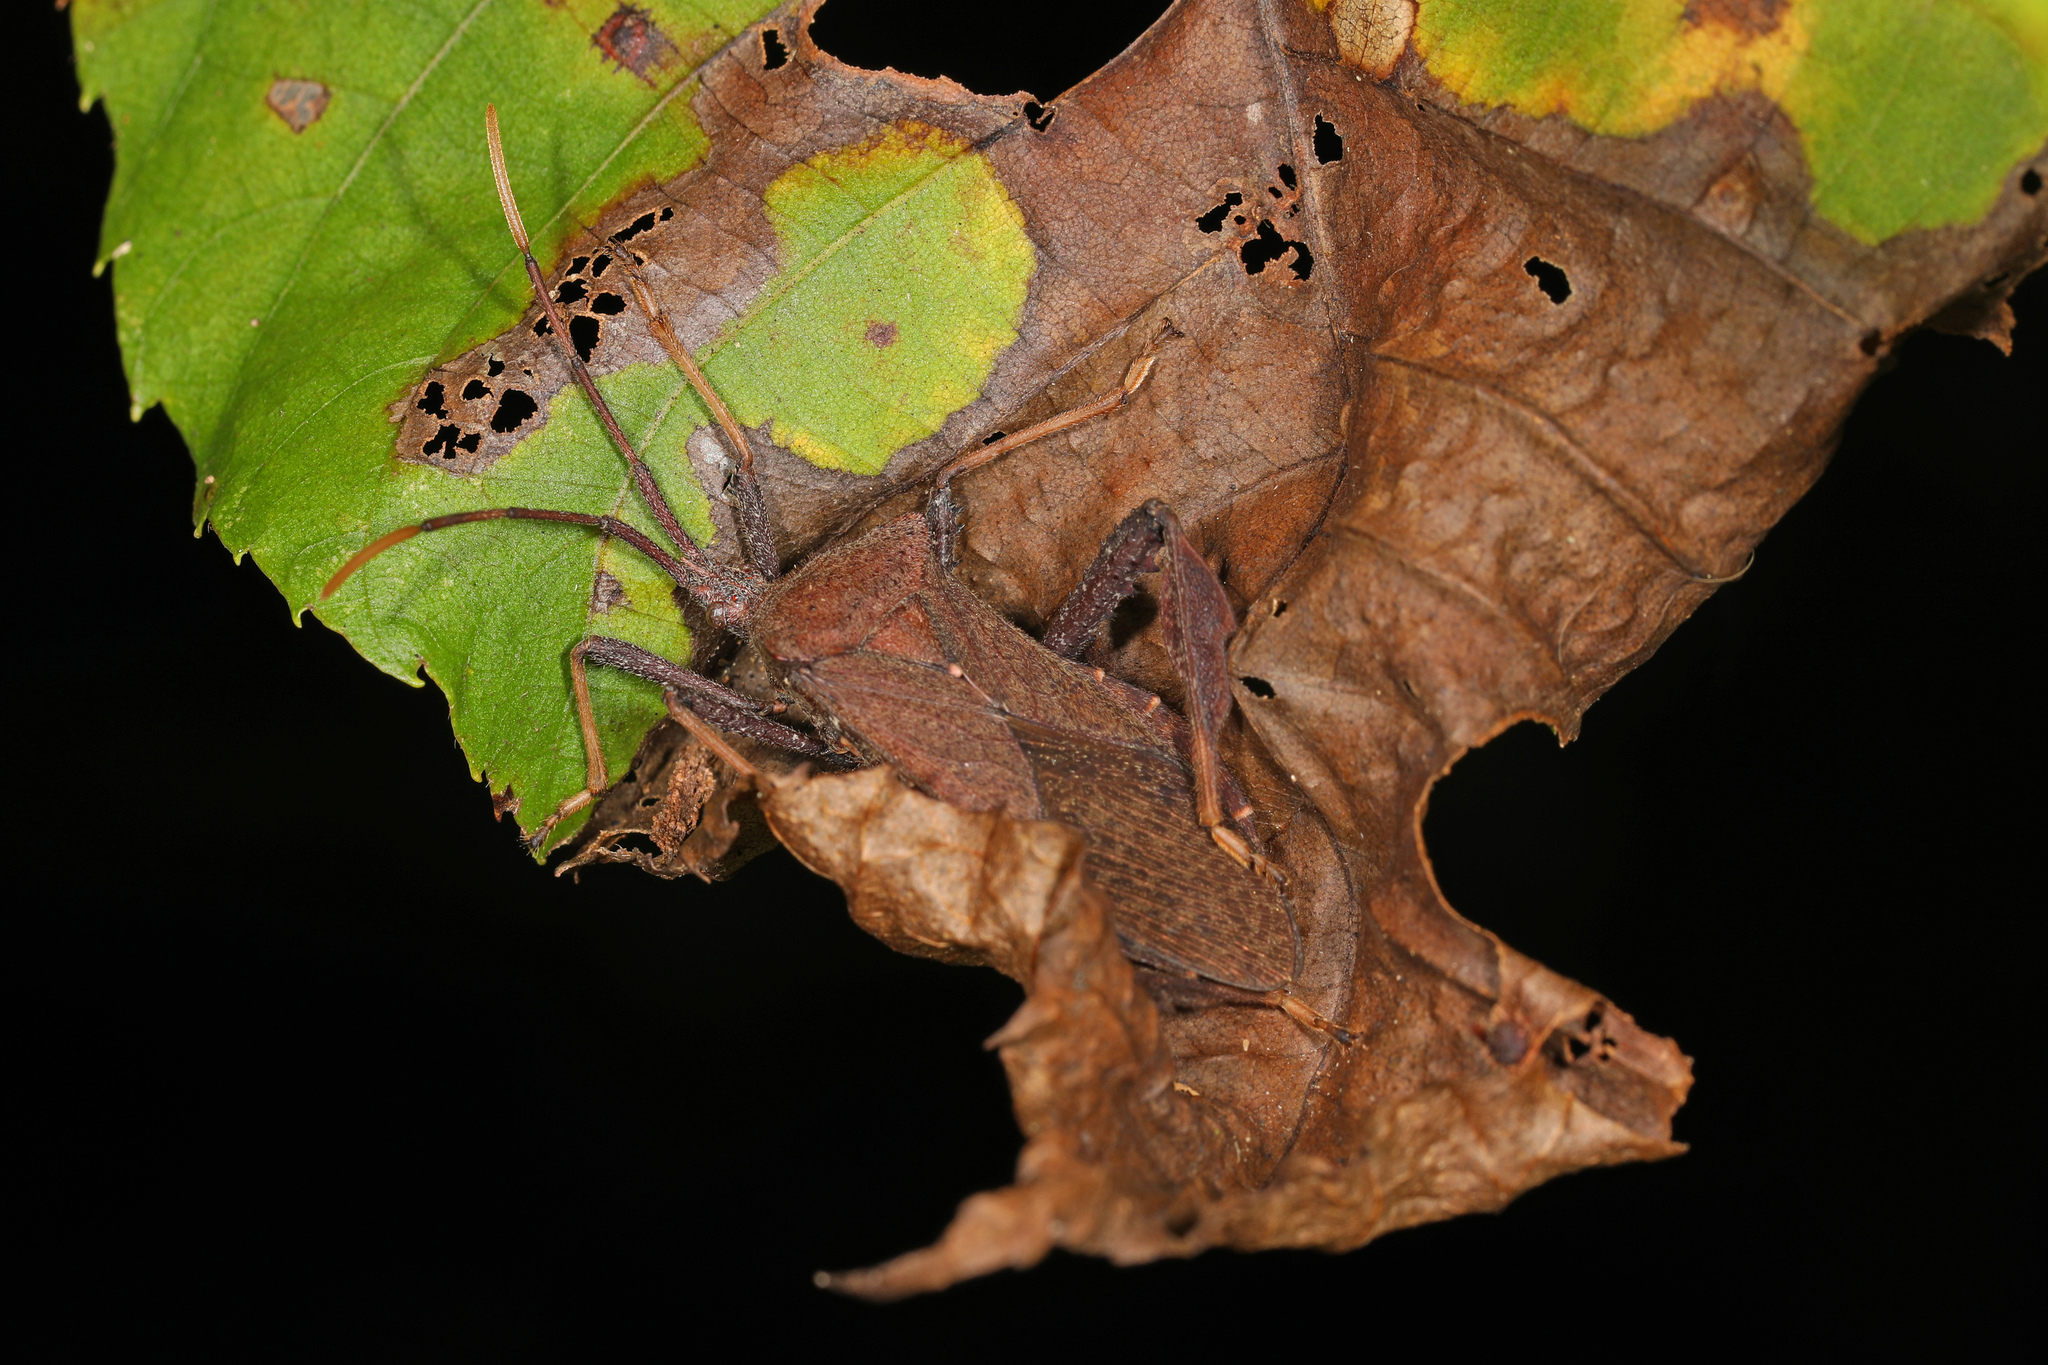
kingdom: Animalia
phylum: Arthropoda
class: Insecta
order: Hemiptera
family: Coreidae
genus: Acanthocephala
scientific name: Acanthocephala terminalis
